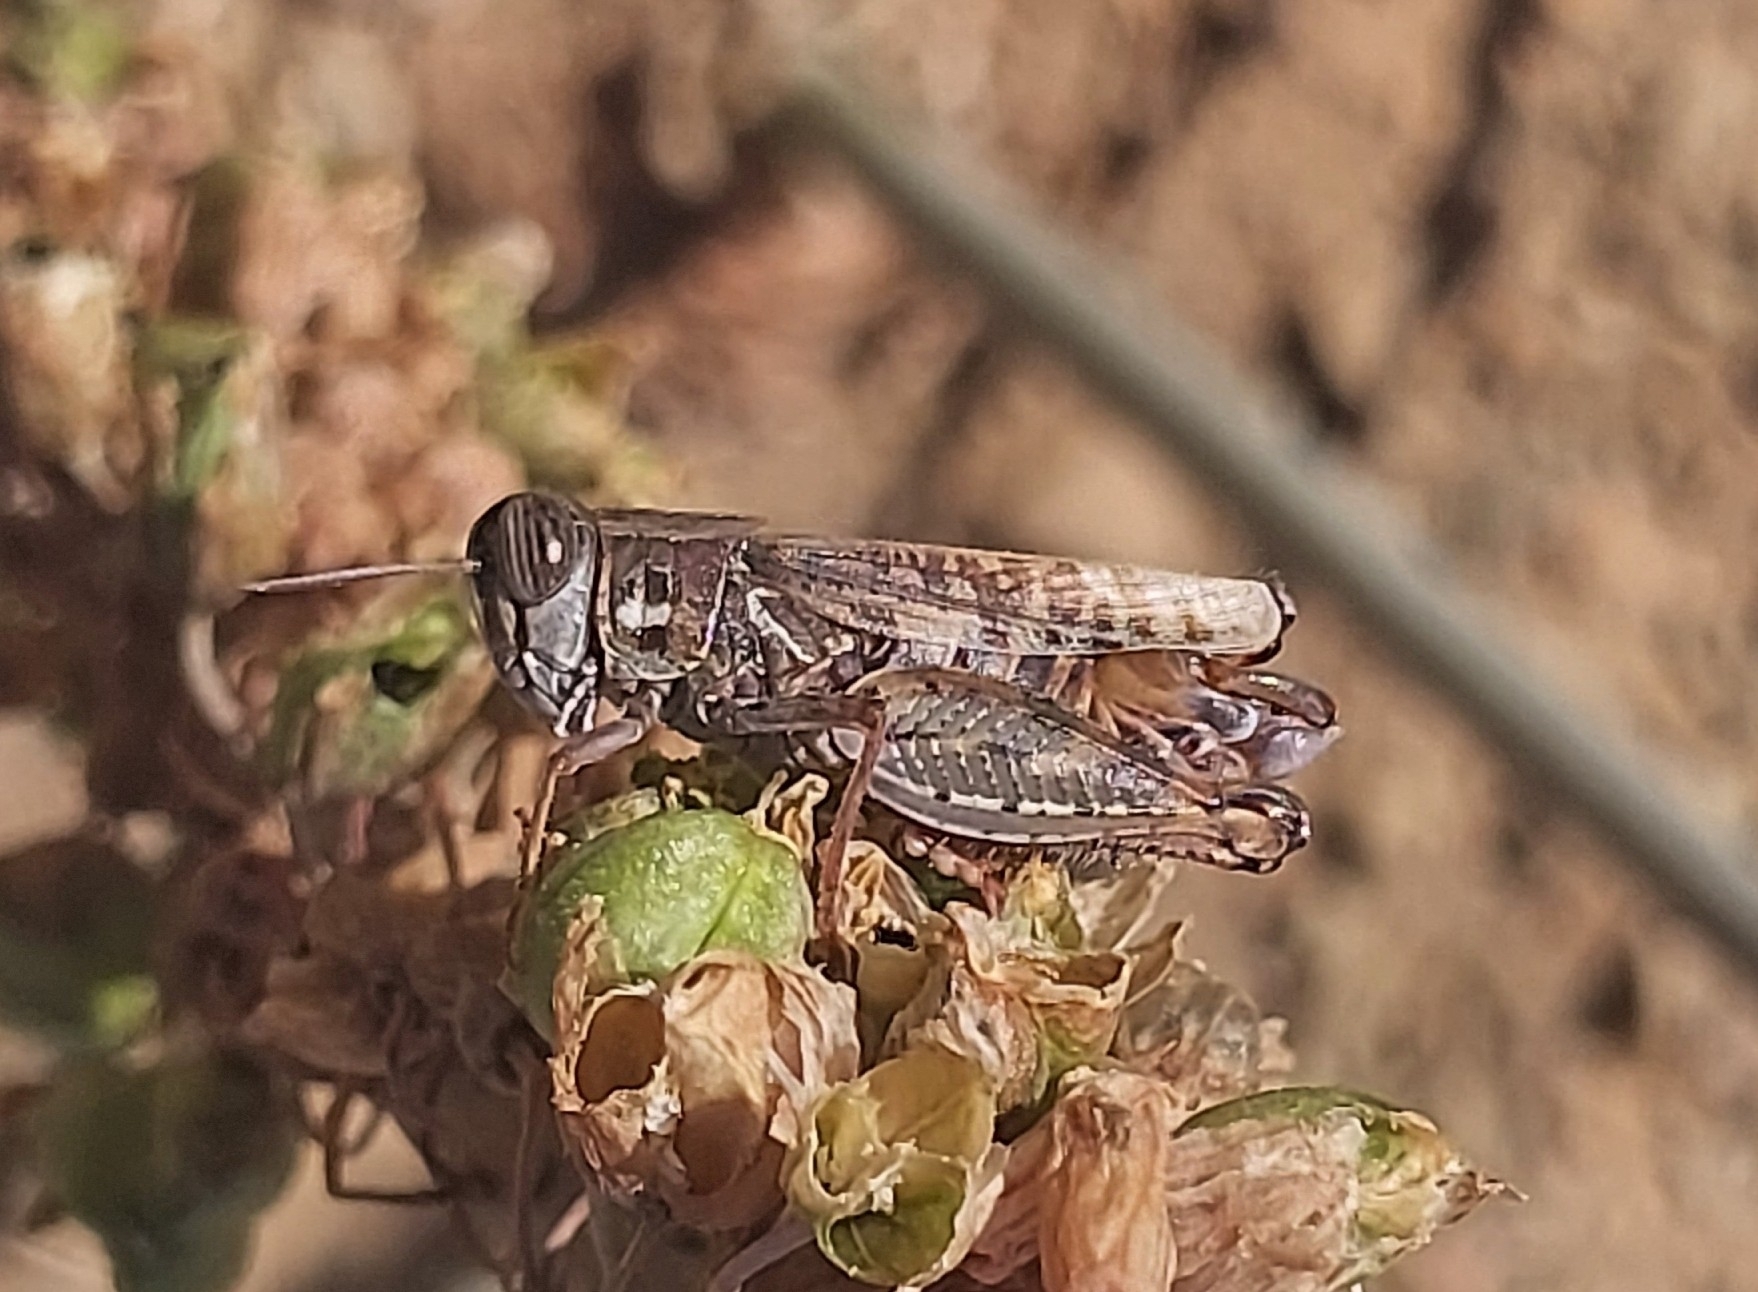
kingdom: Animalia
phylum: Arthropoda
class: Insecta
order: Orthoptera
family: Acrididae
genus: Calliptamus
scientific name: Calliptamus
